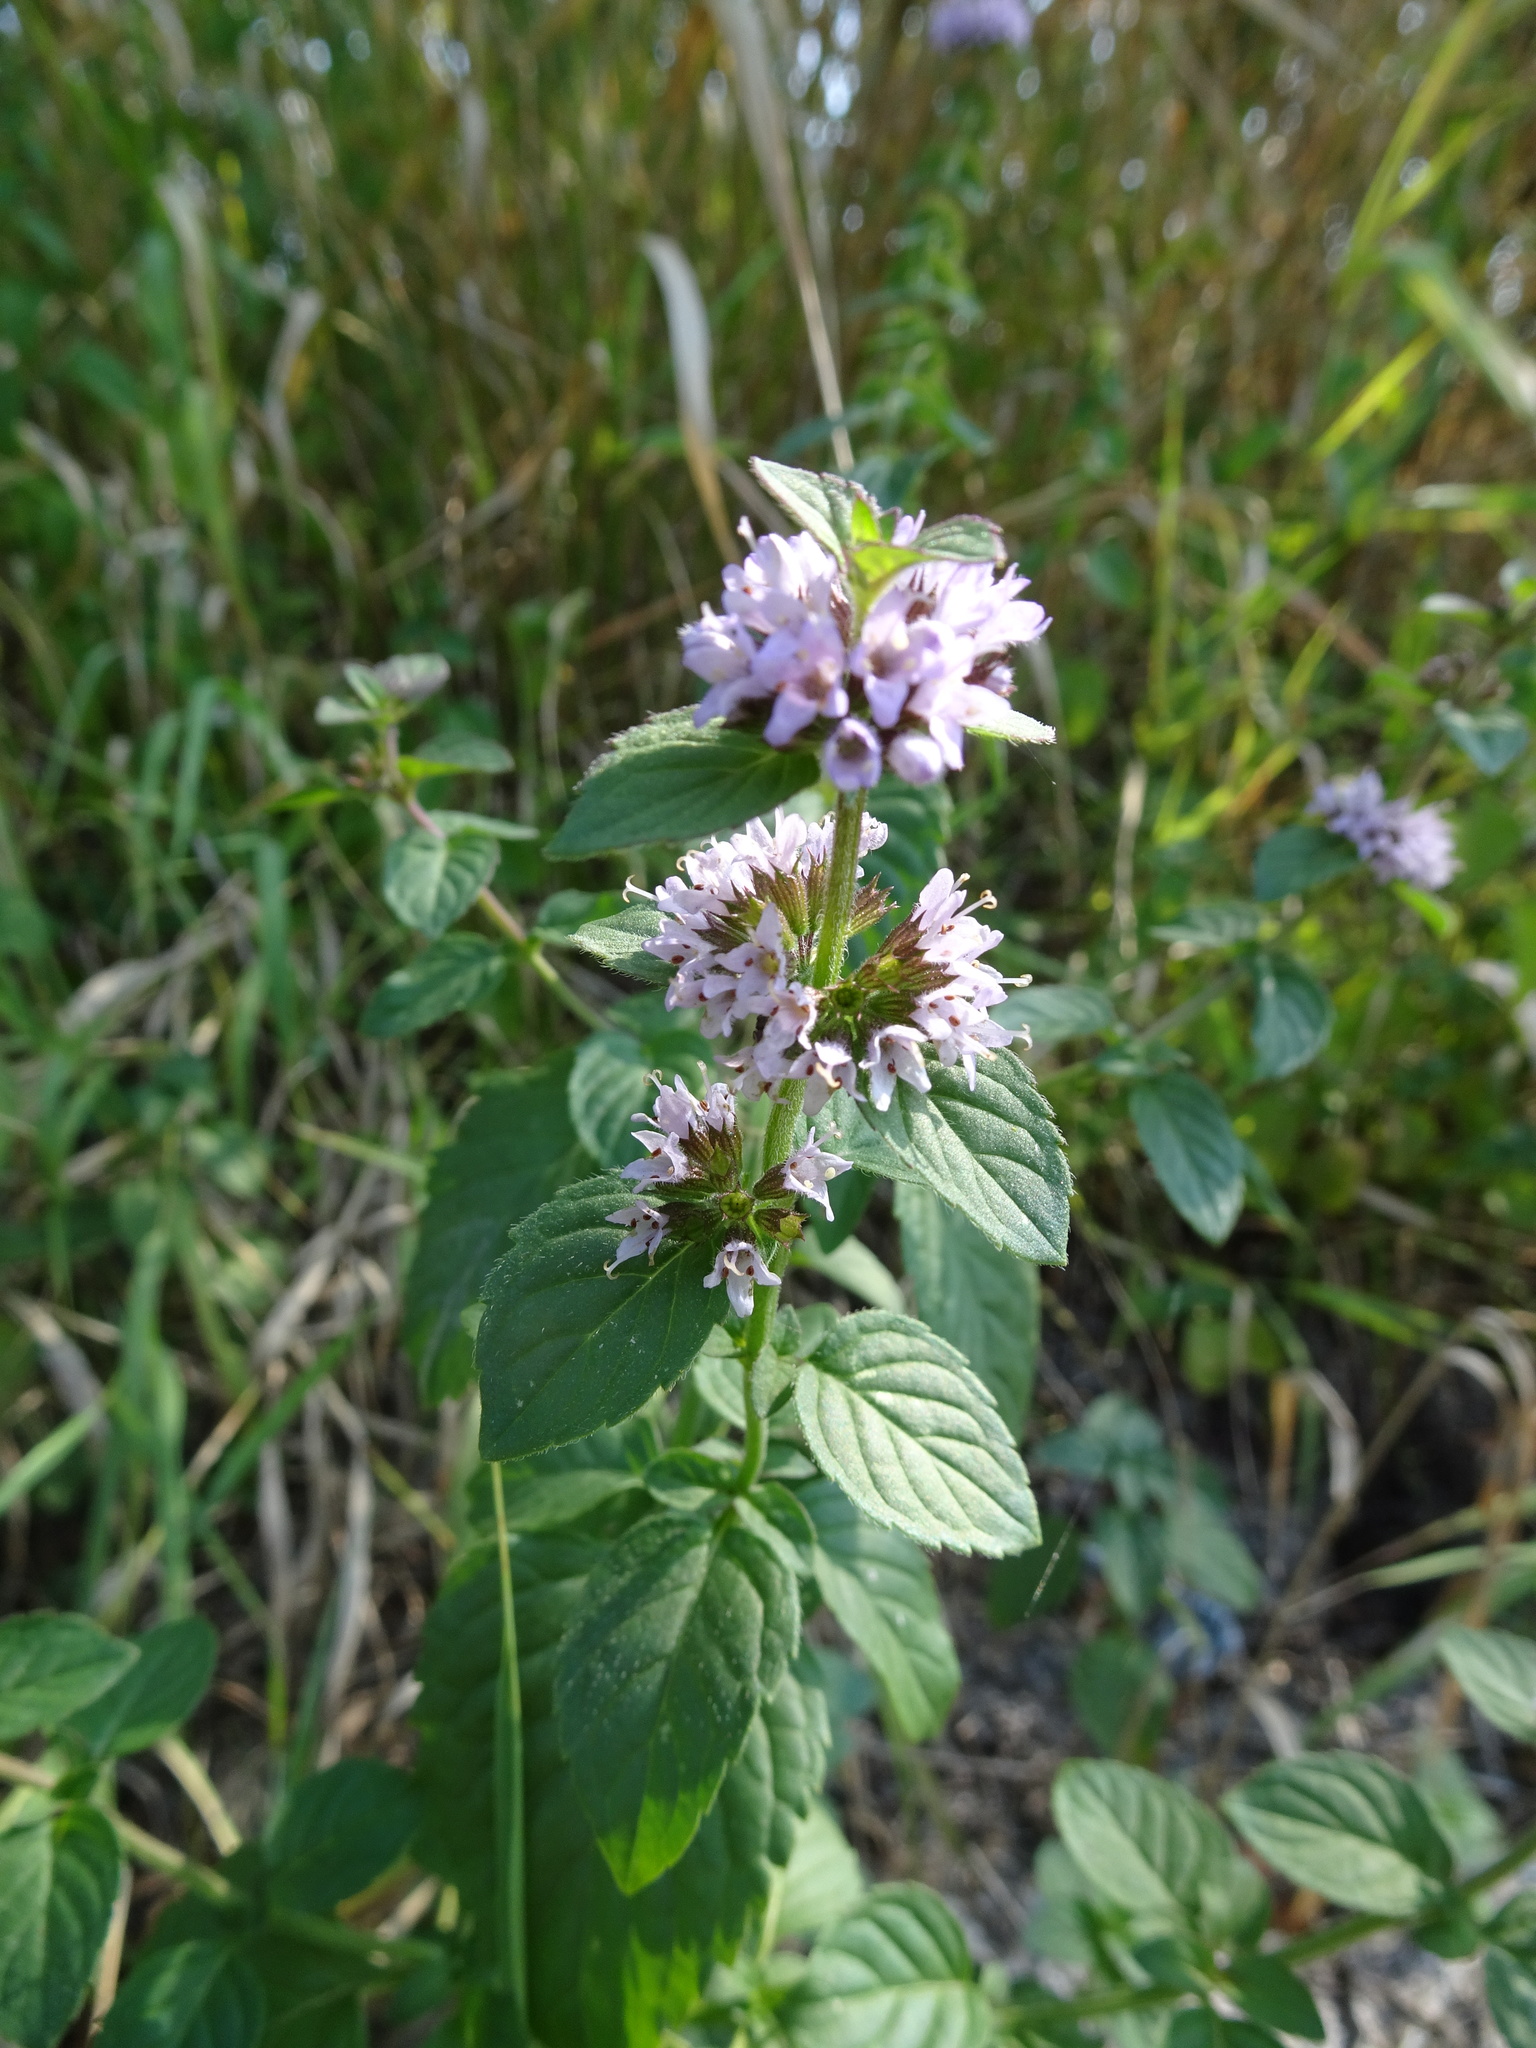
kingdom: Plantae
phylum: Tracheophyta
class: Magnoliopsida
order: Lamiales
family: Lamiaceae
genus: Mentha
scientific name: Mentha verticillata
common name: Mint
